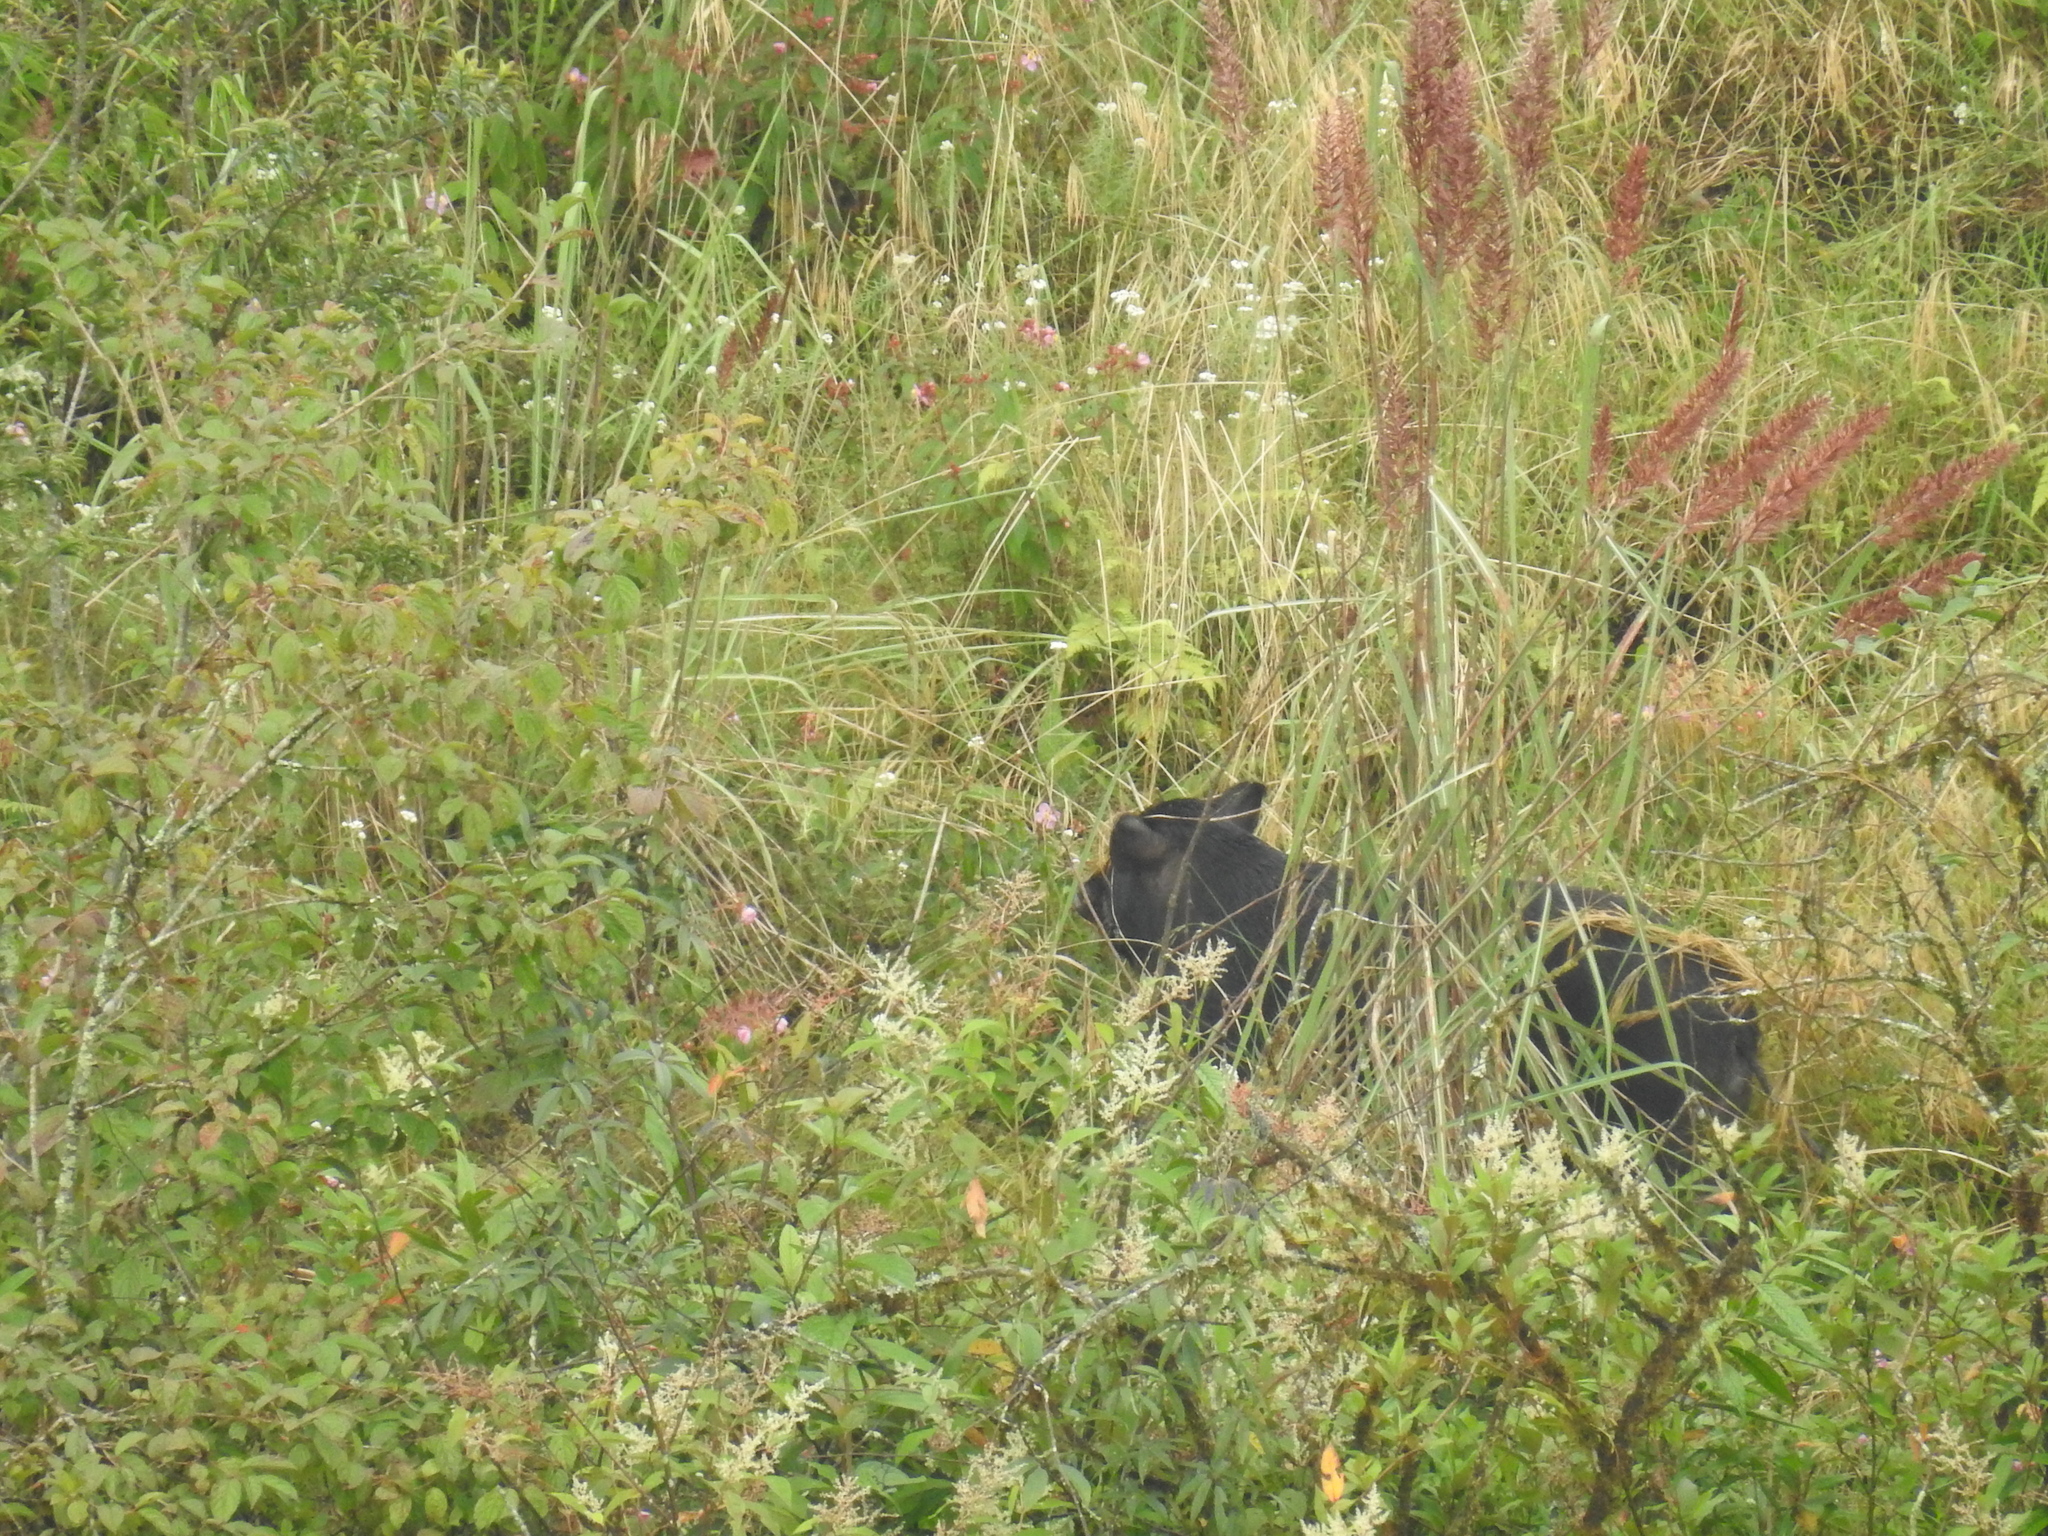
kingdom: Animalia
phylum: Chordata
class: Mammalia
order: Artiodactyla
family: Suidae
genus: Sus
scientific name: Sus scrofa
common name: Wild boar
